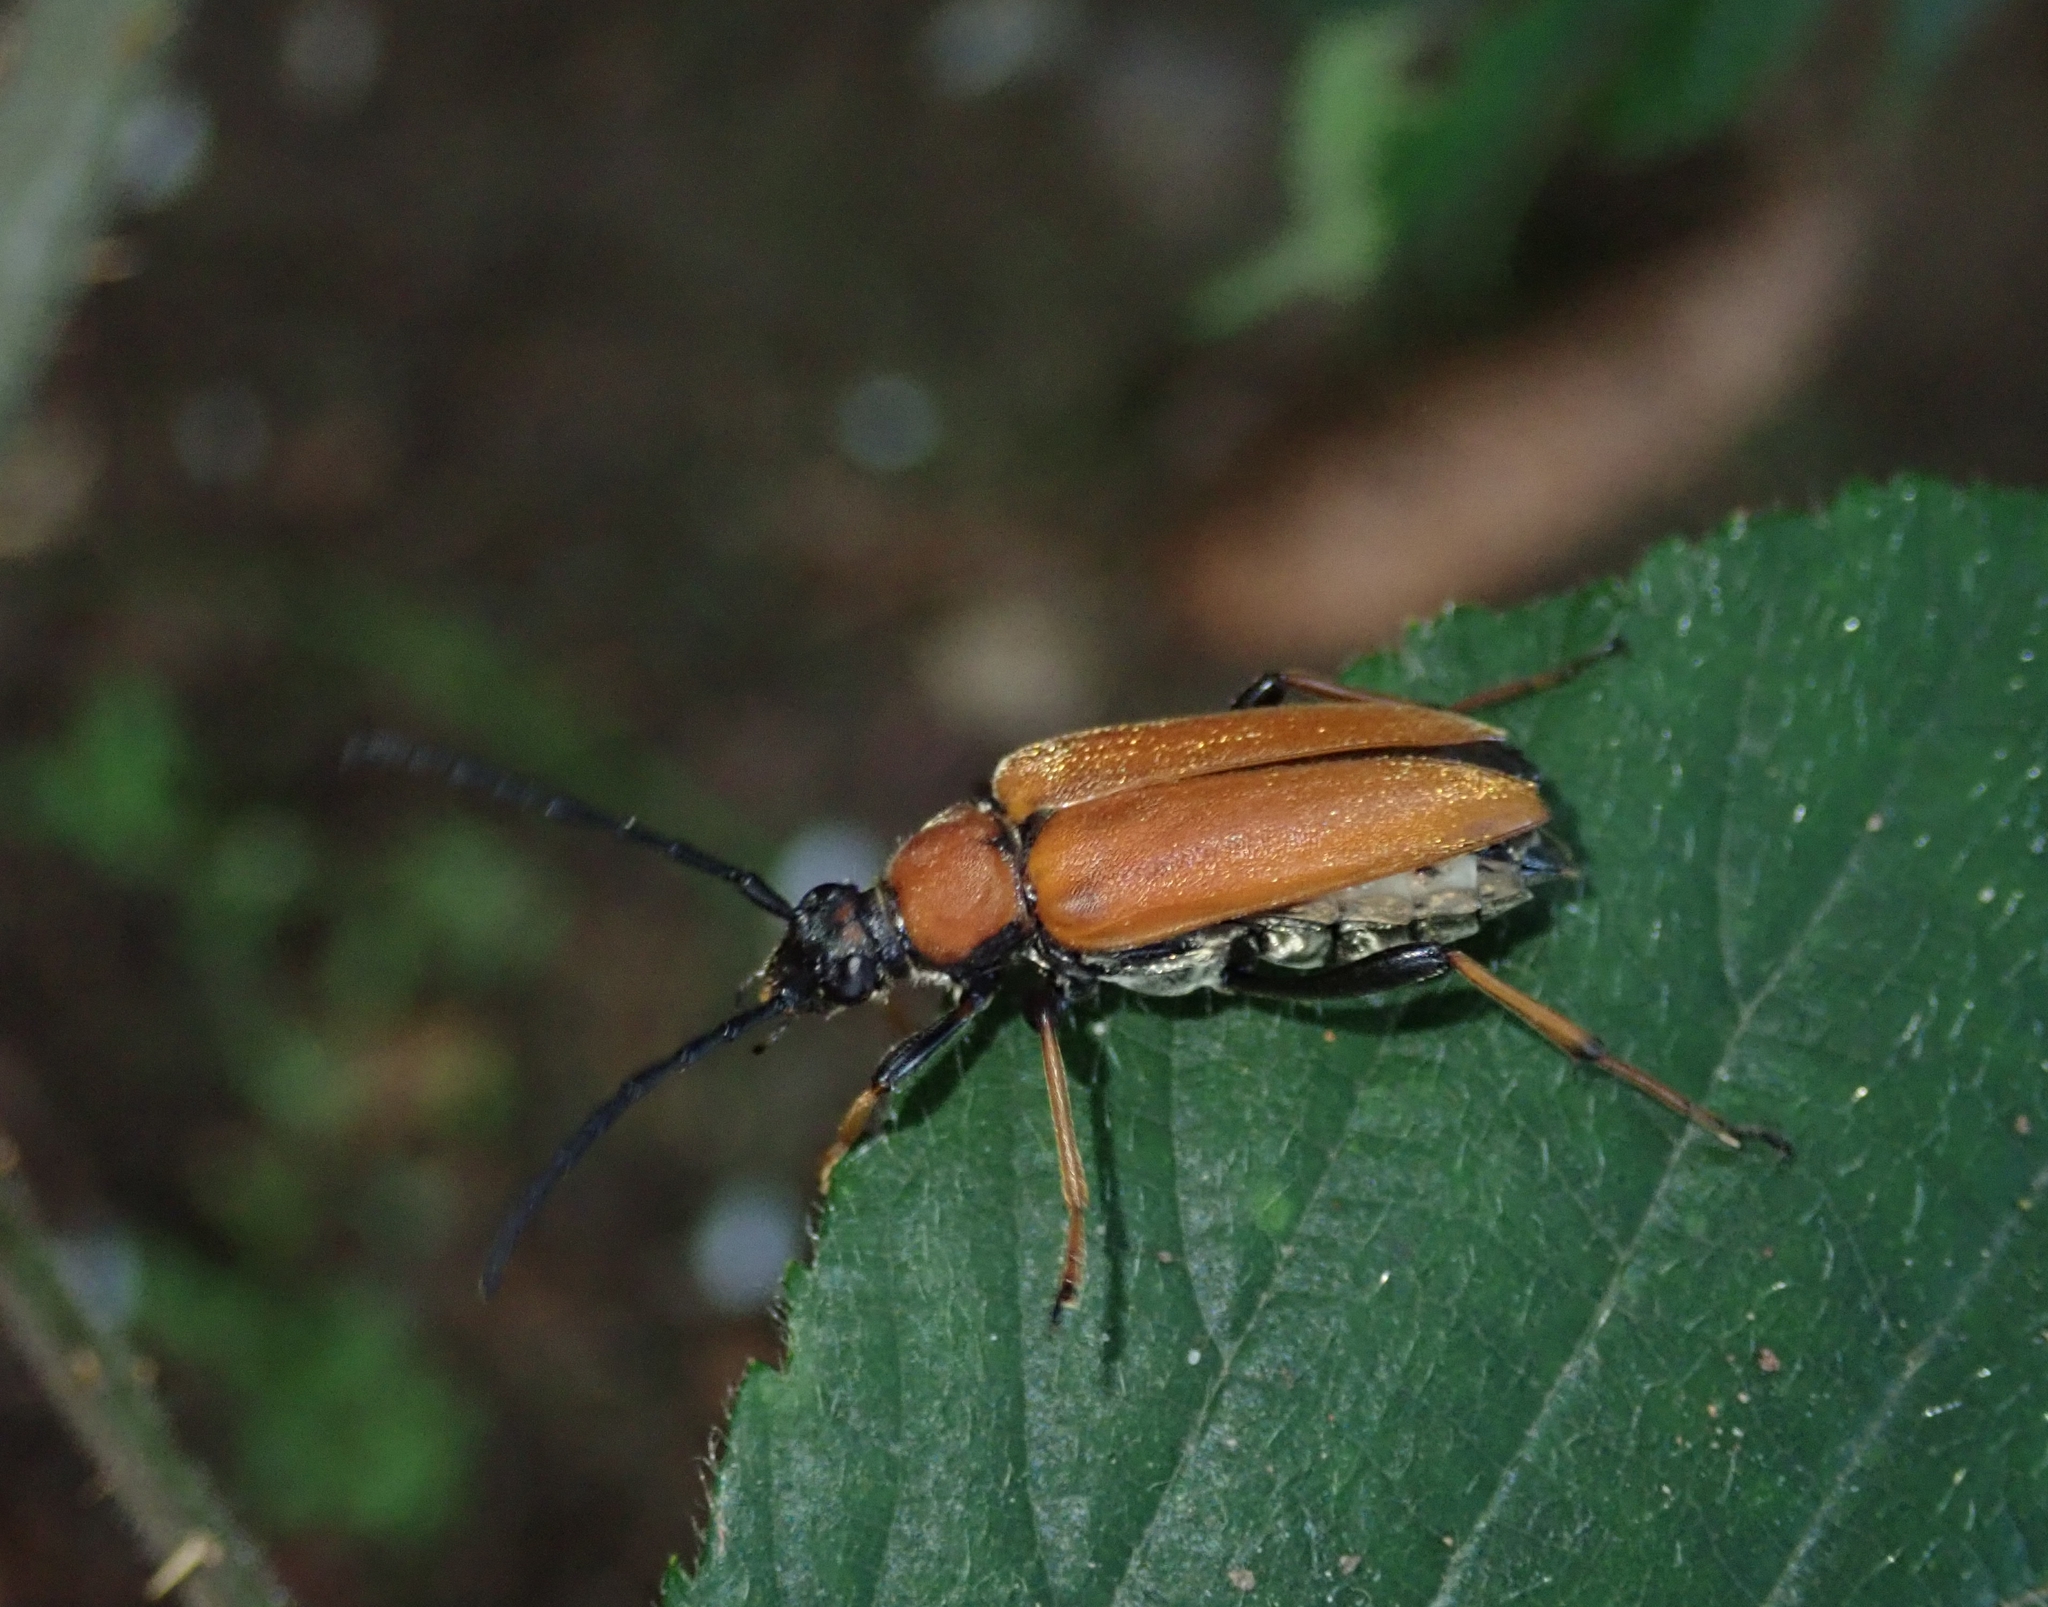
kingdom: Animalia
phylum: Arthropoda
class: Insecta
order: Coleoptera
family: Cerambycidae
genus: Stictoleptura
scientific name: Stictoleptura rubra
